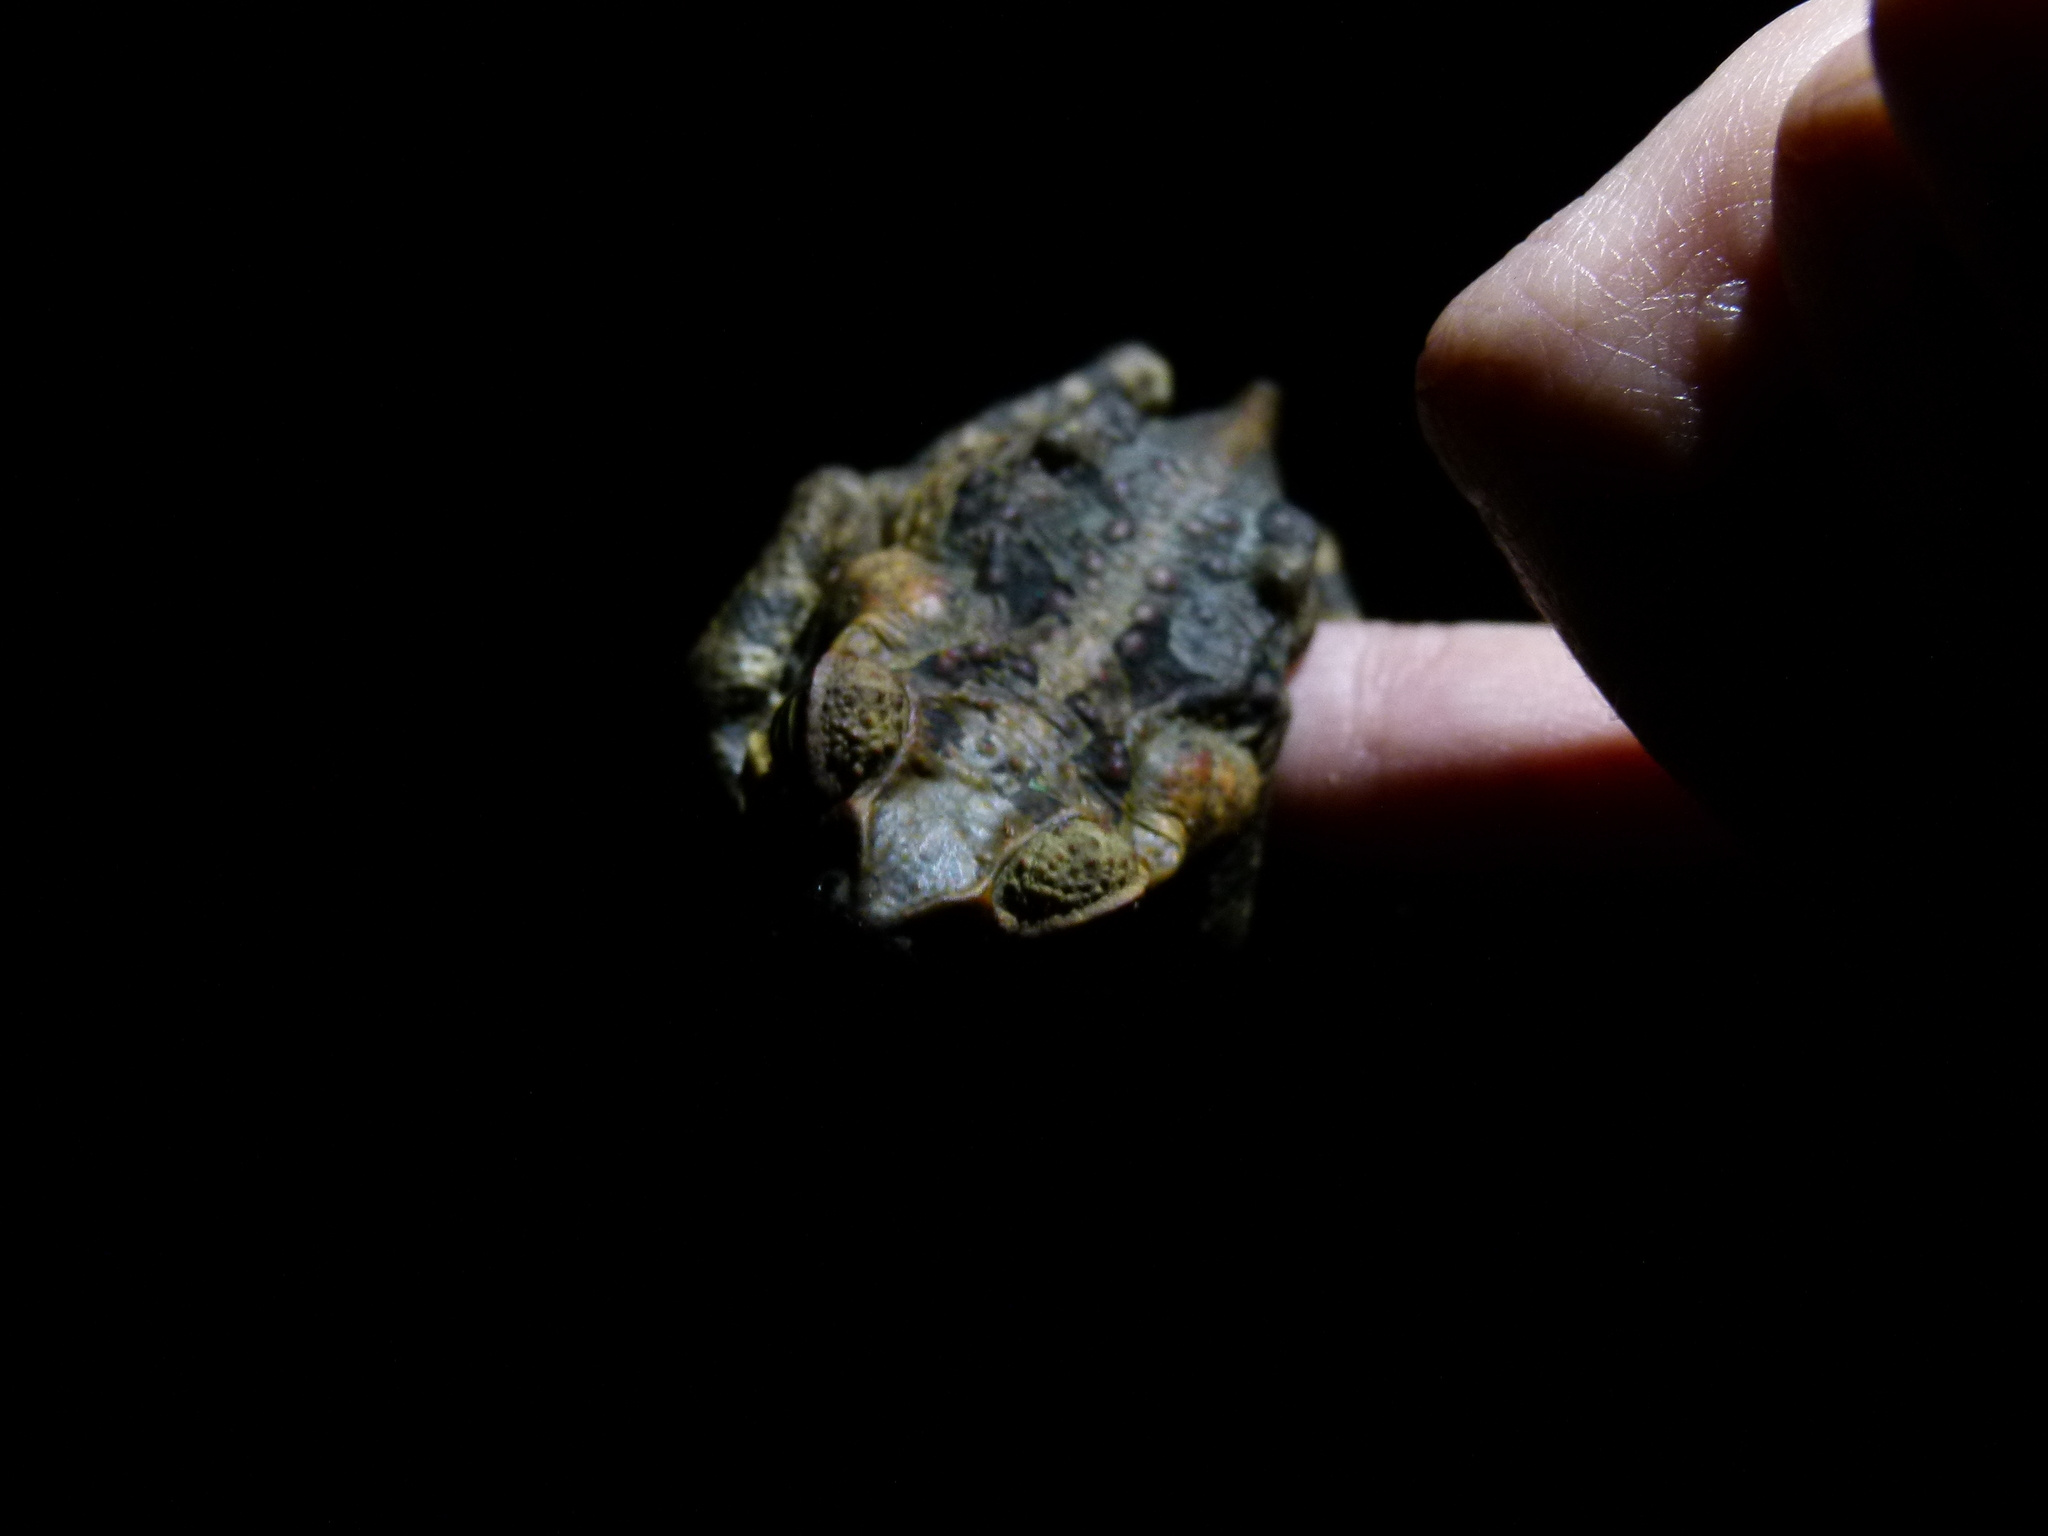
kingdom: Animalia
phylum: Chordata
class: Amphibia
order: Anura
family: Bufonidae
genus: Rhinella
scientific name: Rhinella marina
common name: Cane toad
